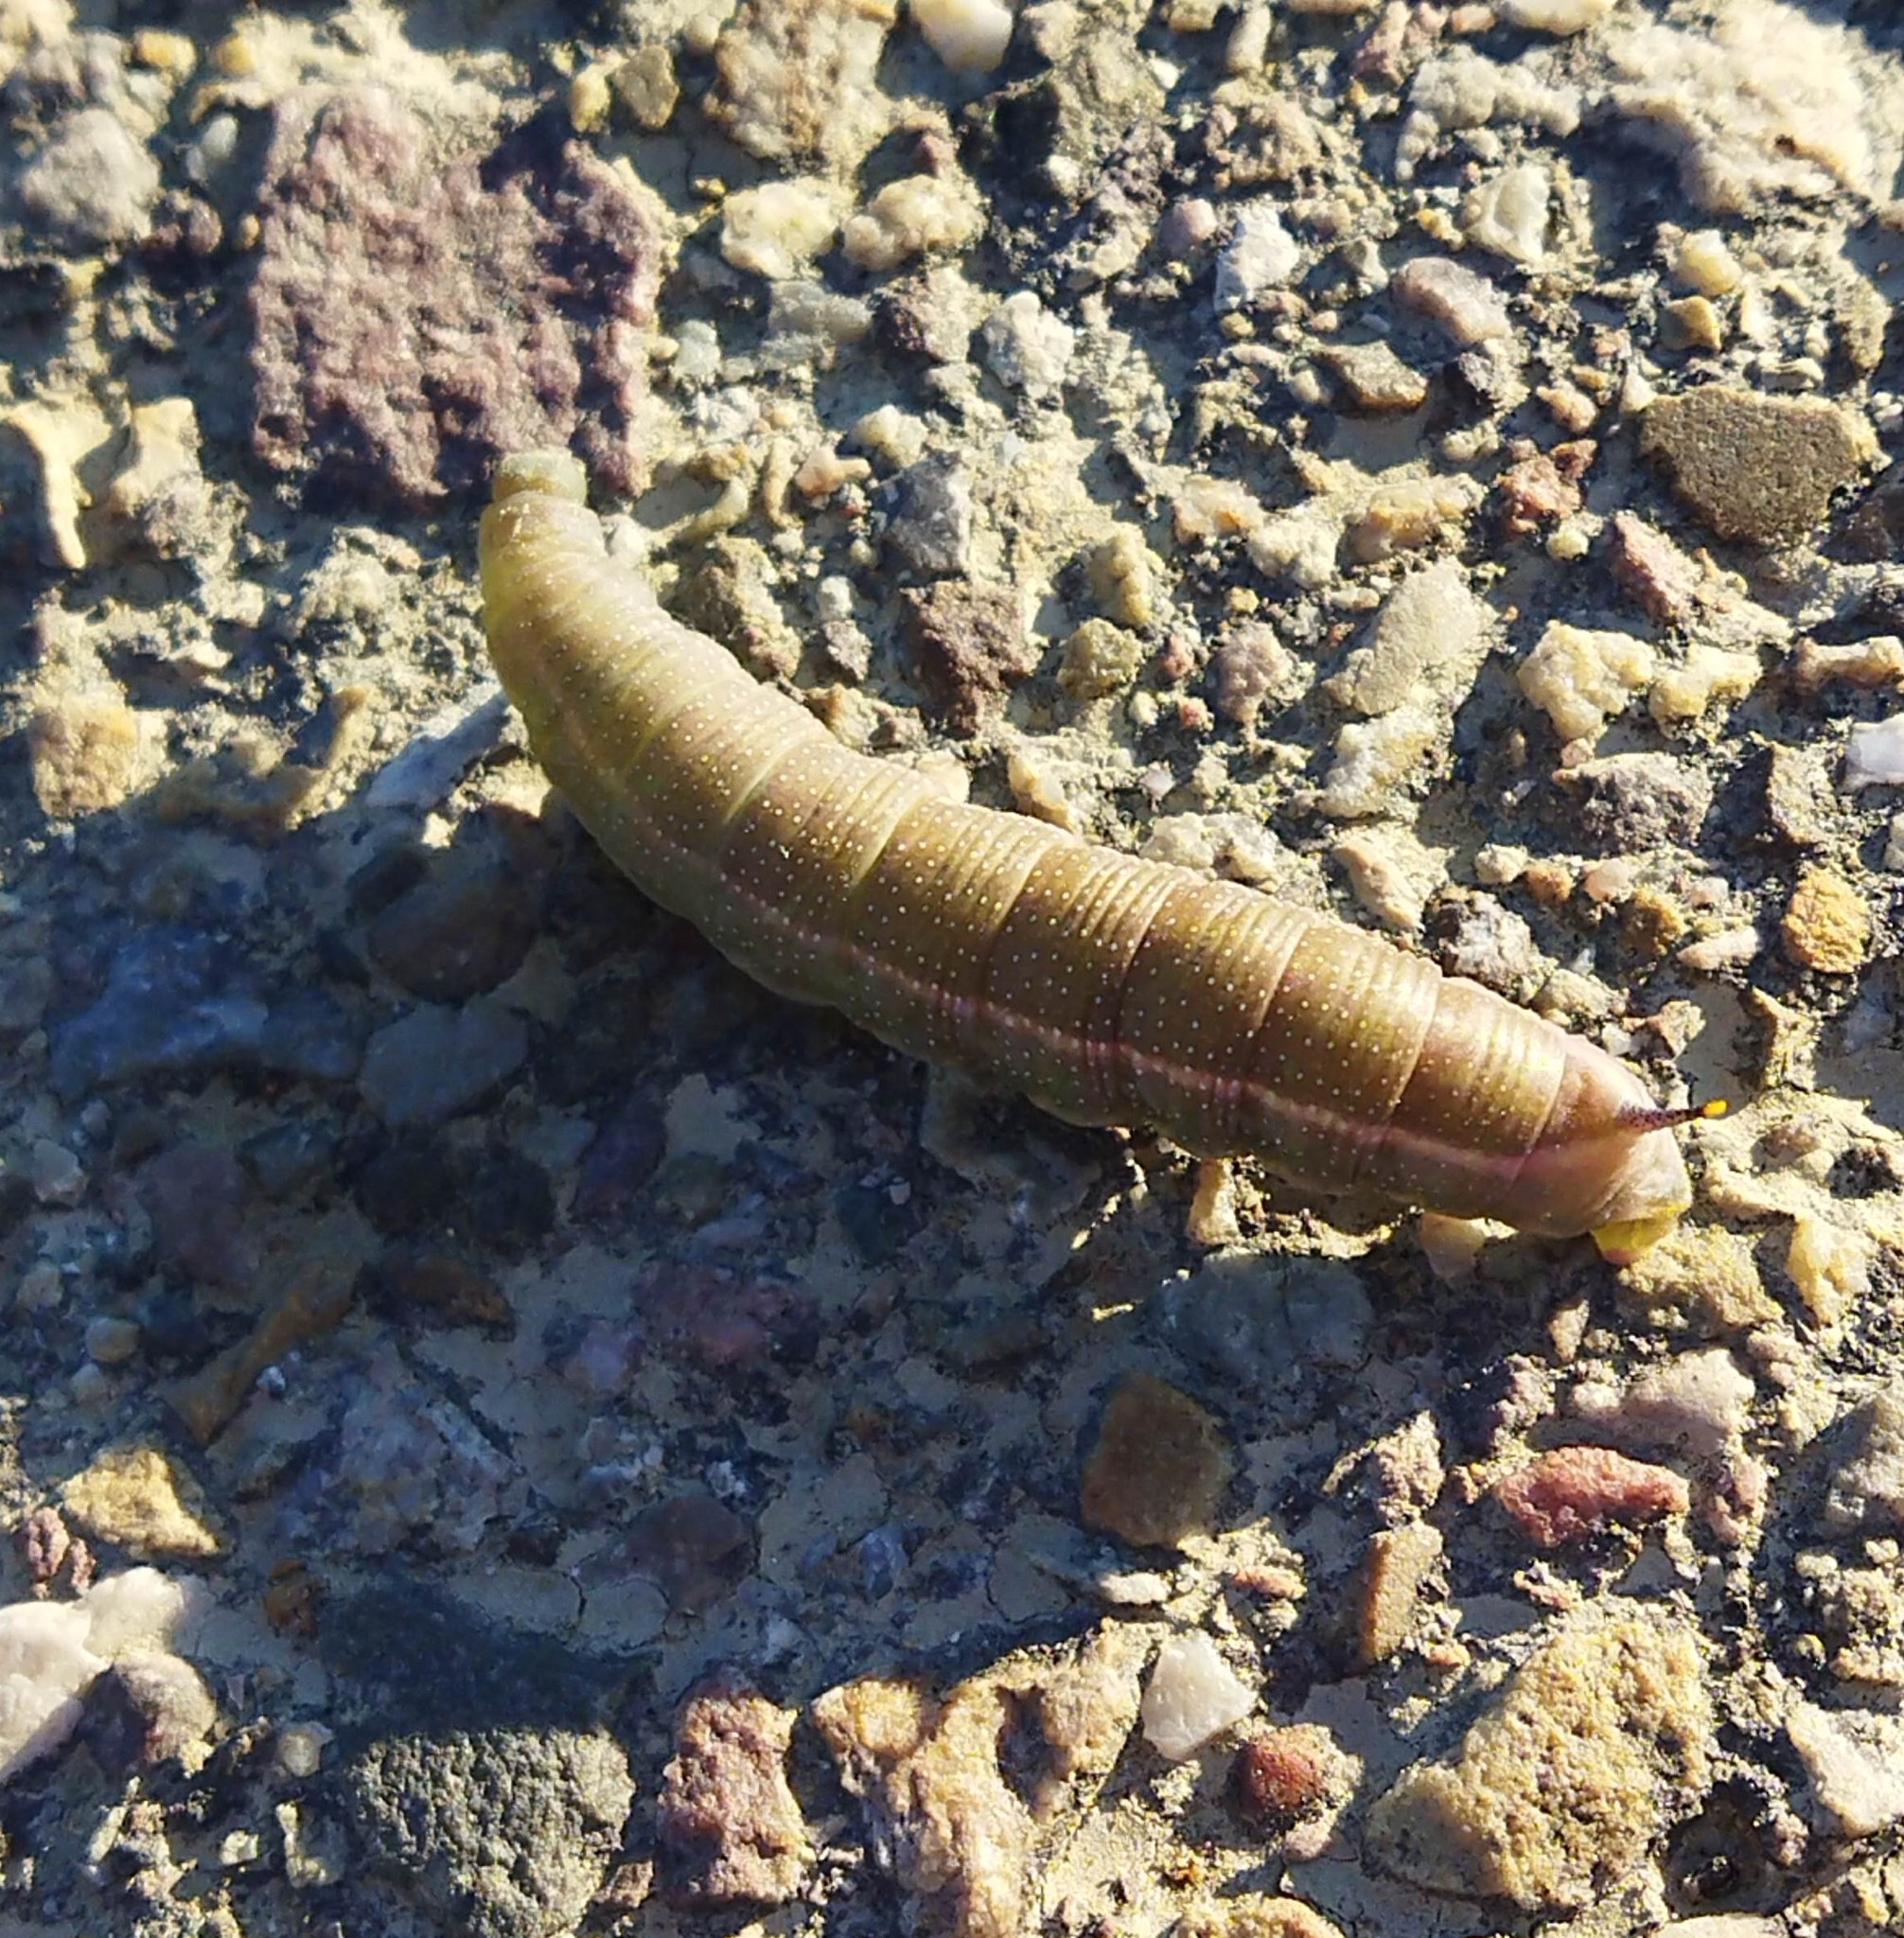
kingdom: Animalia
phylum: Arthropoda
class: Insecta
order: Lepidoptera
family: Sphingidae
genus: Macroglossum
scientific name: Macroglossum stellatarum
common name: Humming-bird hawk-moth
